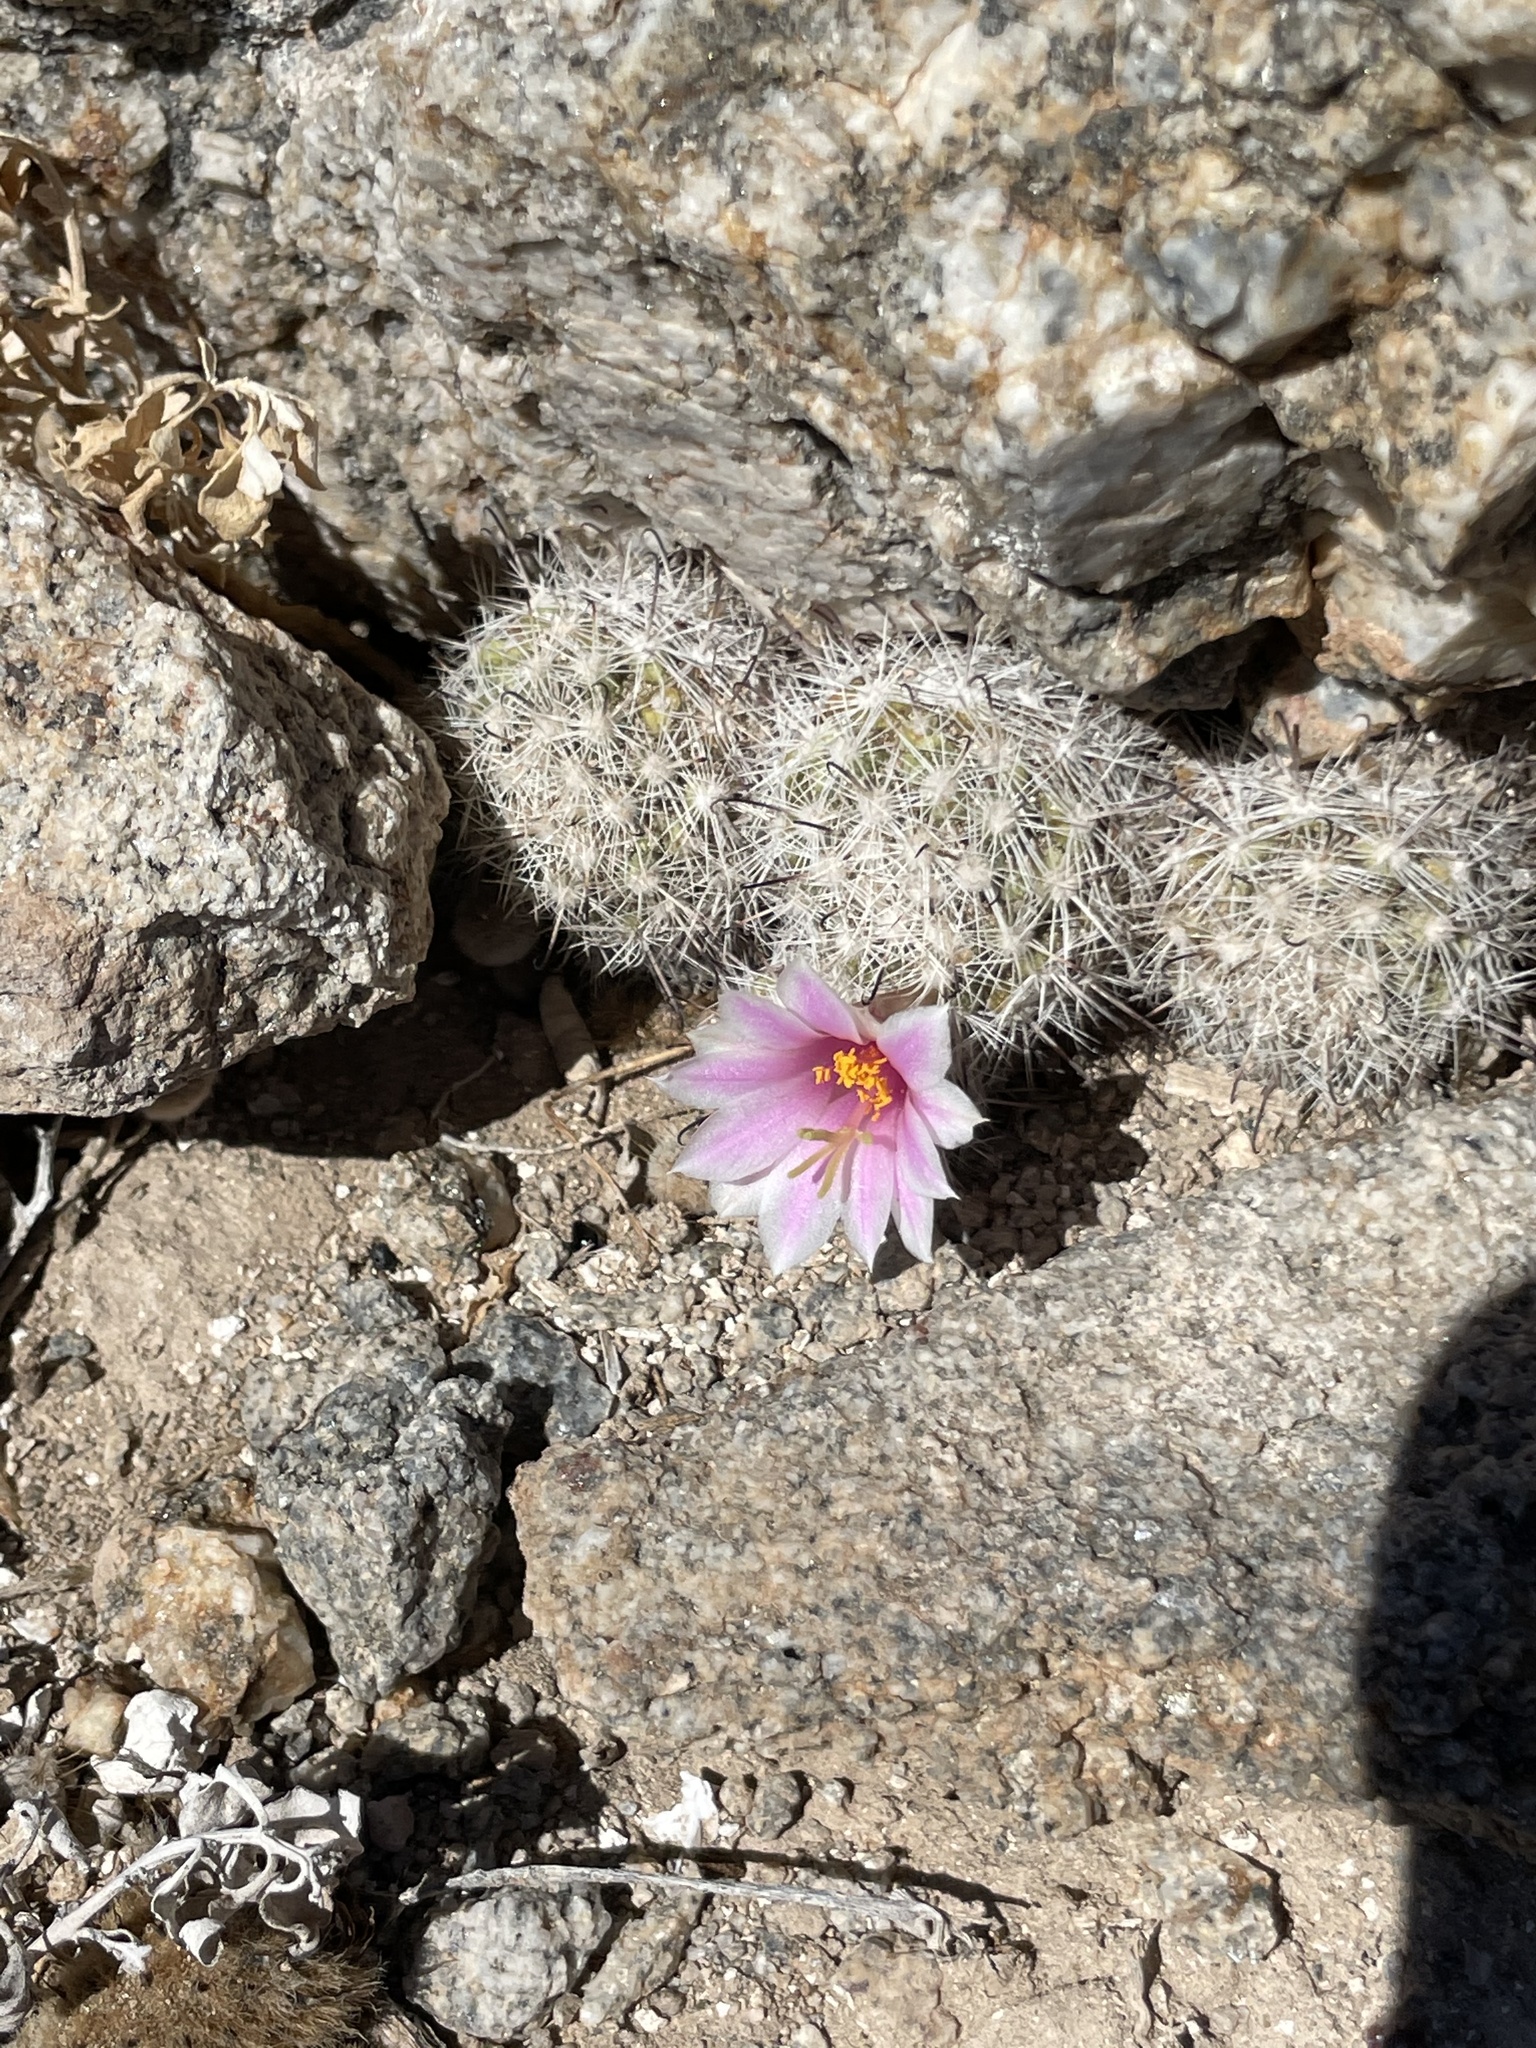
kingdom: Plantae
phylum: Tracheophyta
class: Magnoliopsida
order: Caryophyllales
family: Cactaceae
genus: Cochemiea
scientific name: Cochemiea insularis
